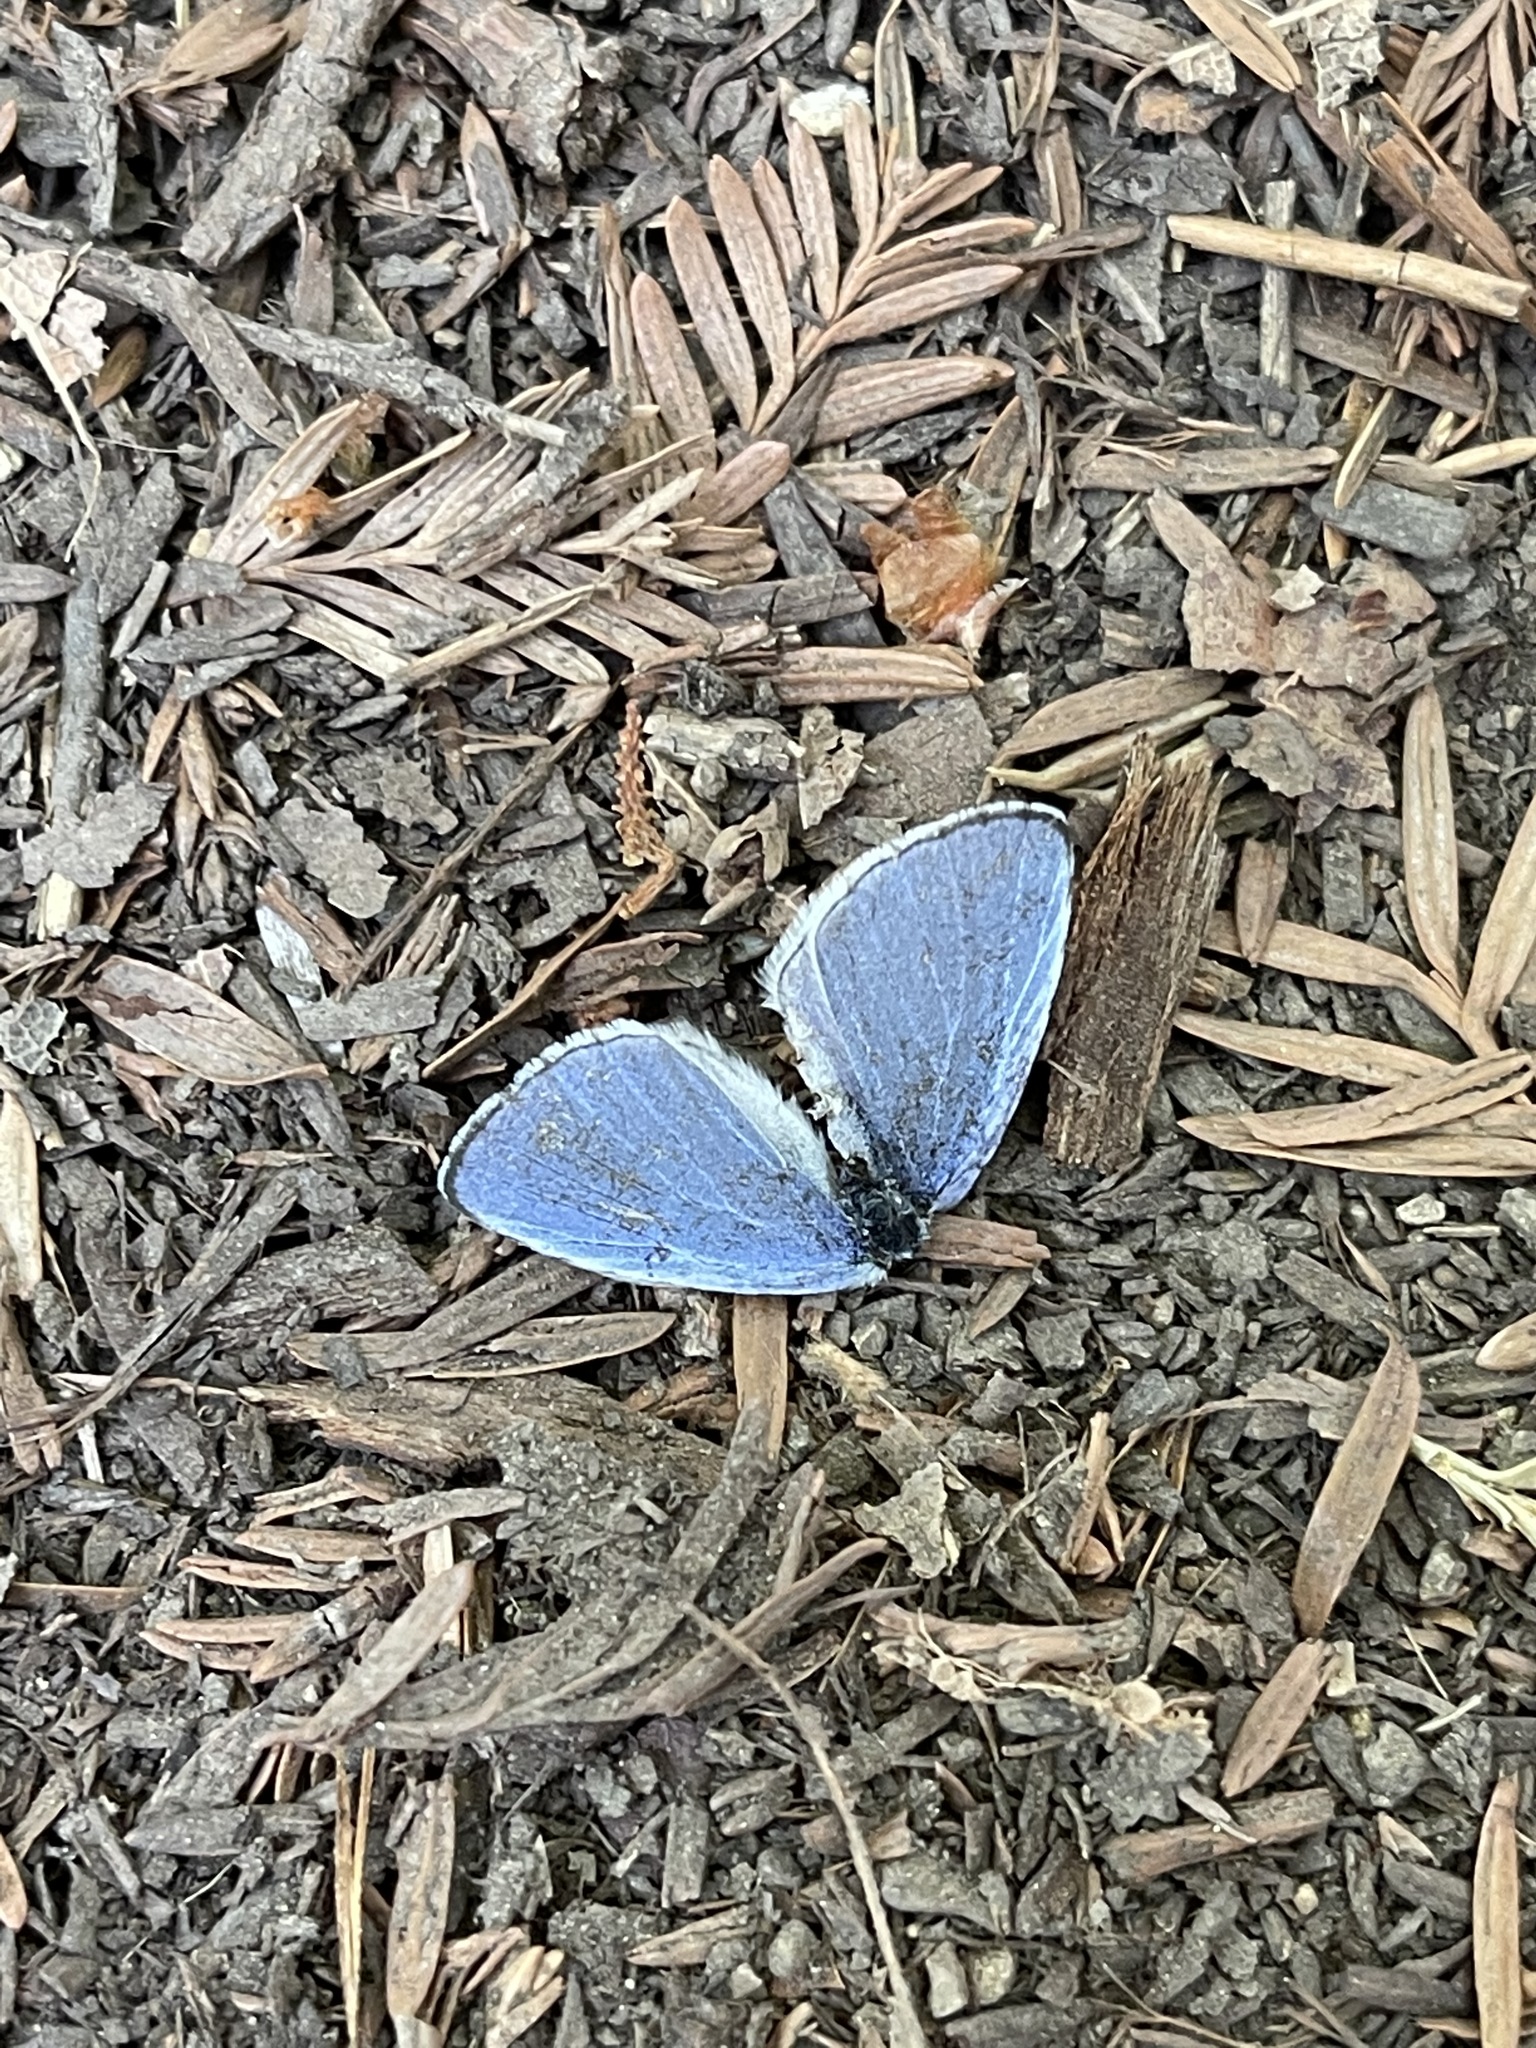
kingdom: Animalia
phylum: Arthropoda
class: Insecta
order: Lepidoptera
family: Lycaenidae
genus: Celastrina
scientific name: Celastrina ladon
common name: Spring azure
